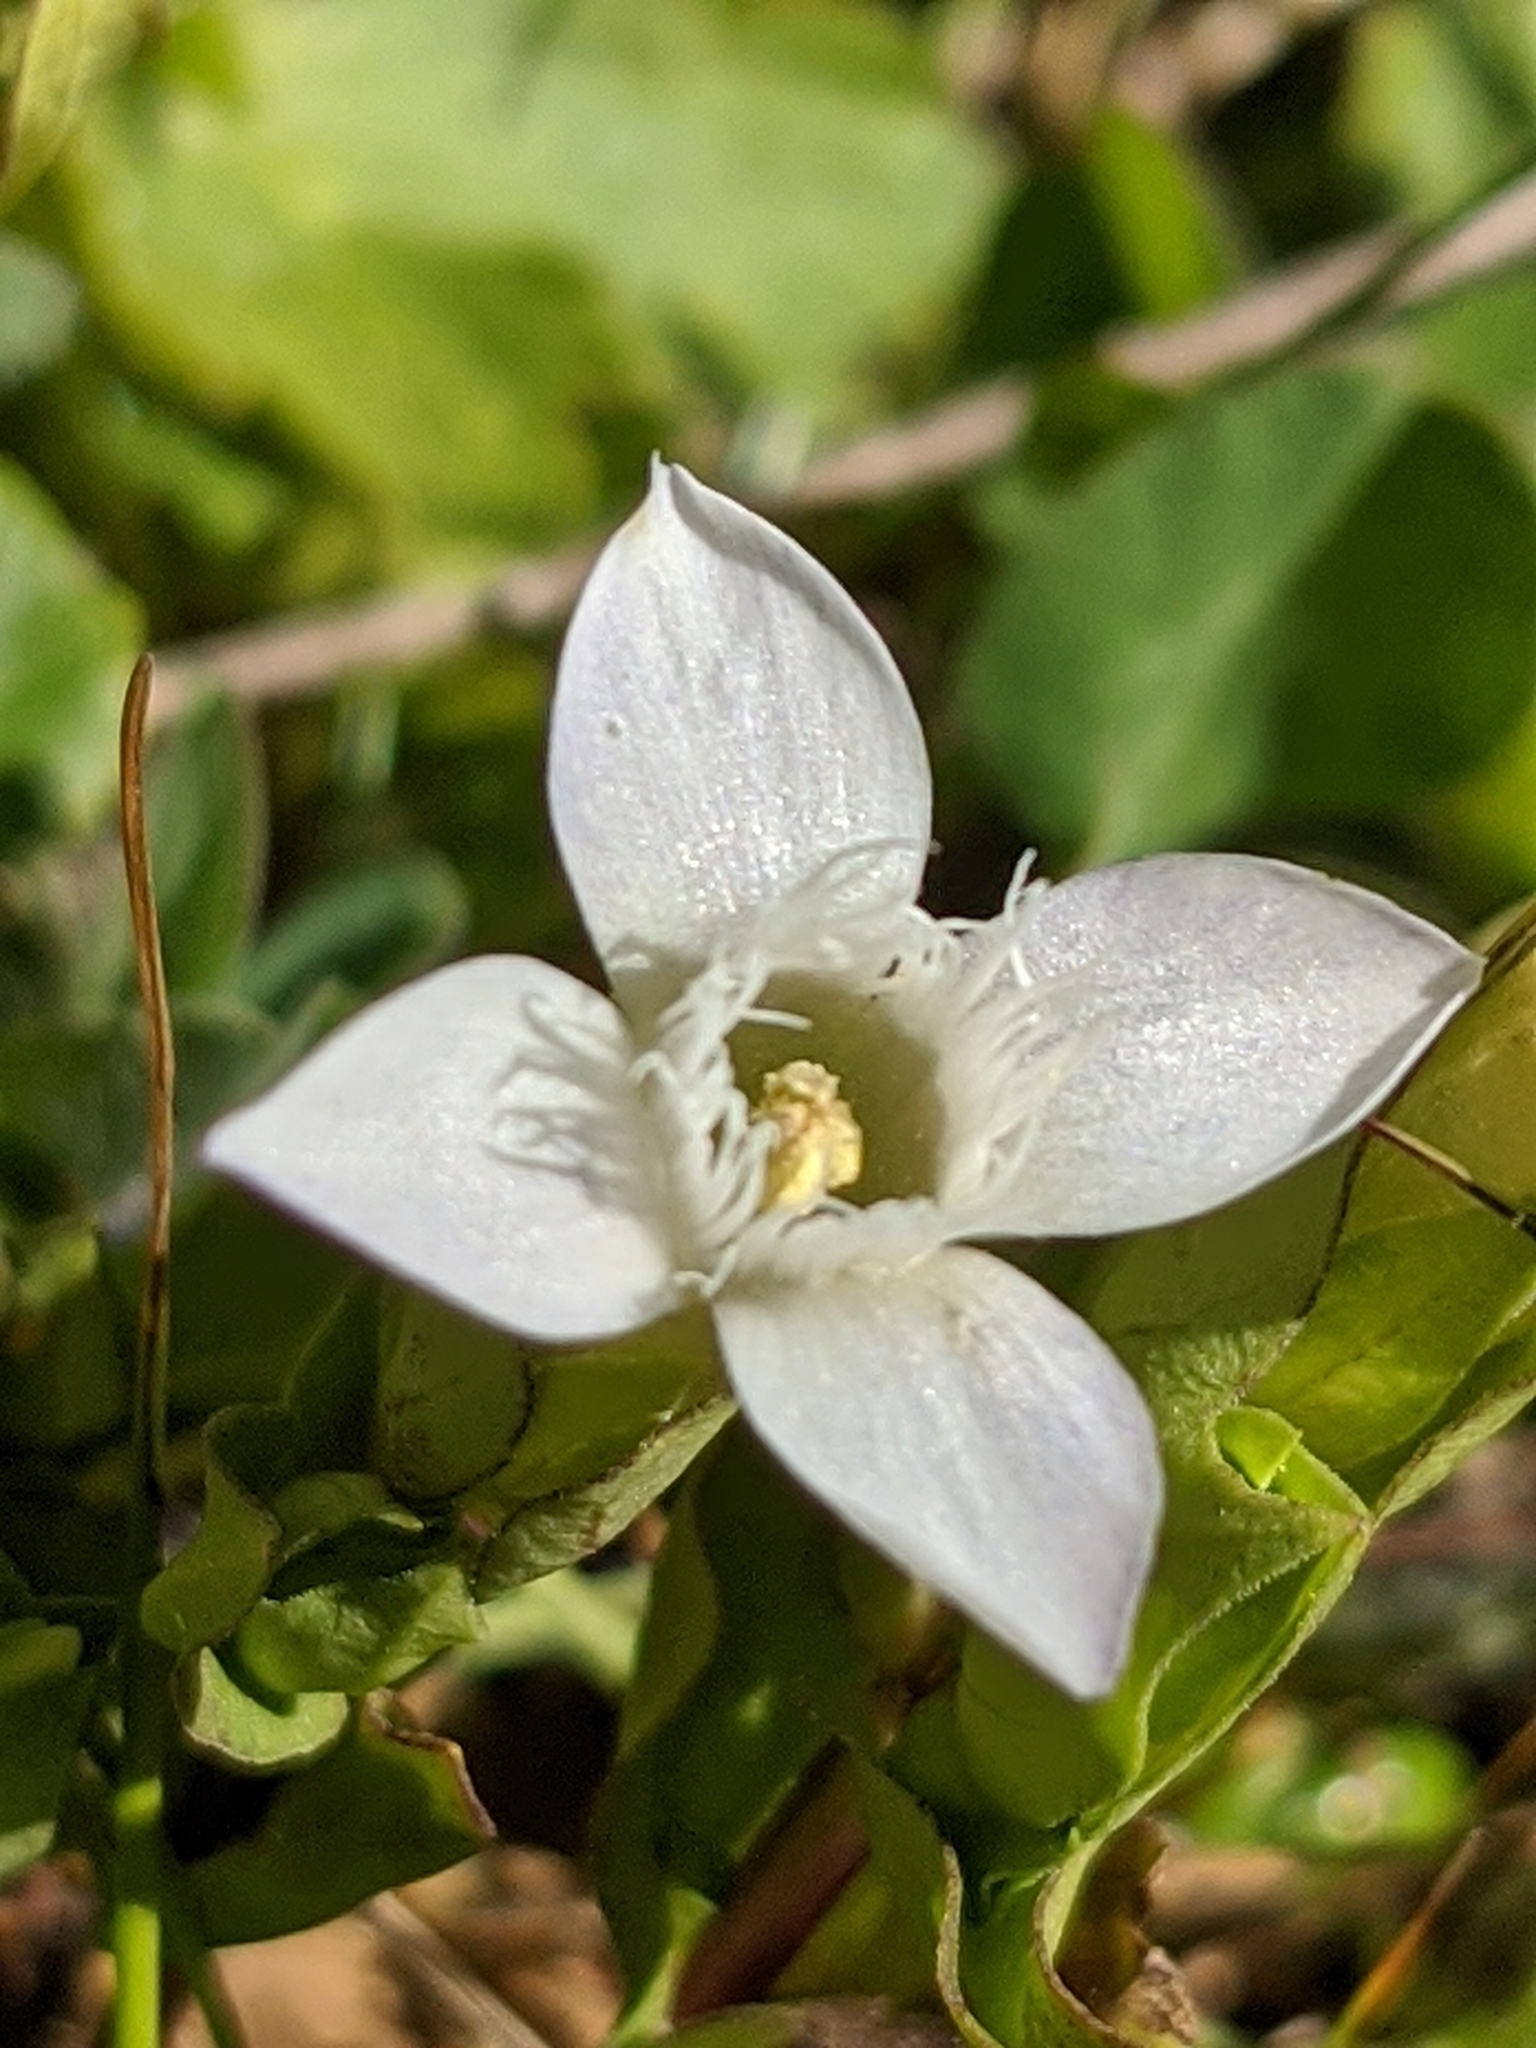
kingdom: Plantae
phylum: Tracheophyta
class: Magnoliopsida
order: Gentianales
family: Gentianaceae
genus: Gentianella
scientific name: Gentianella campestris
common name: Field gentian
